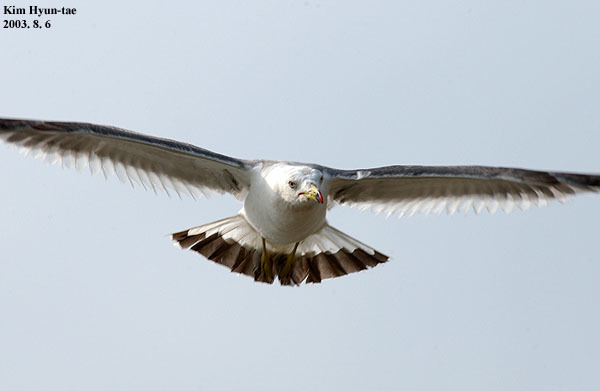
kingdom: Animalia
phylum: Chordata
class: Aves
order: Charadriiformes
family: Laridae
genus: Larus
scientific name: Larus crassirostris
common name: Black-tailed gull
